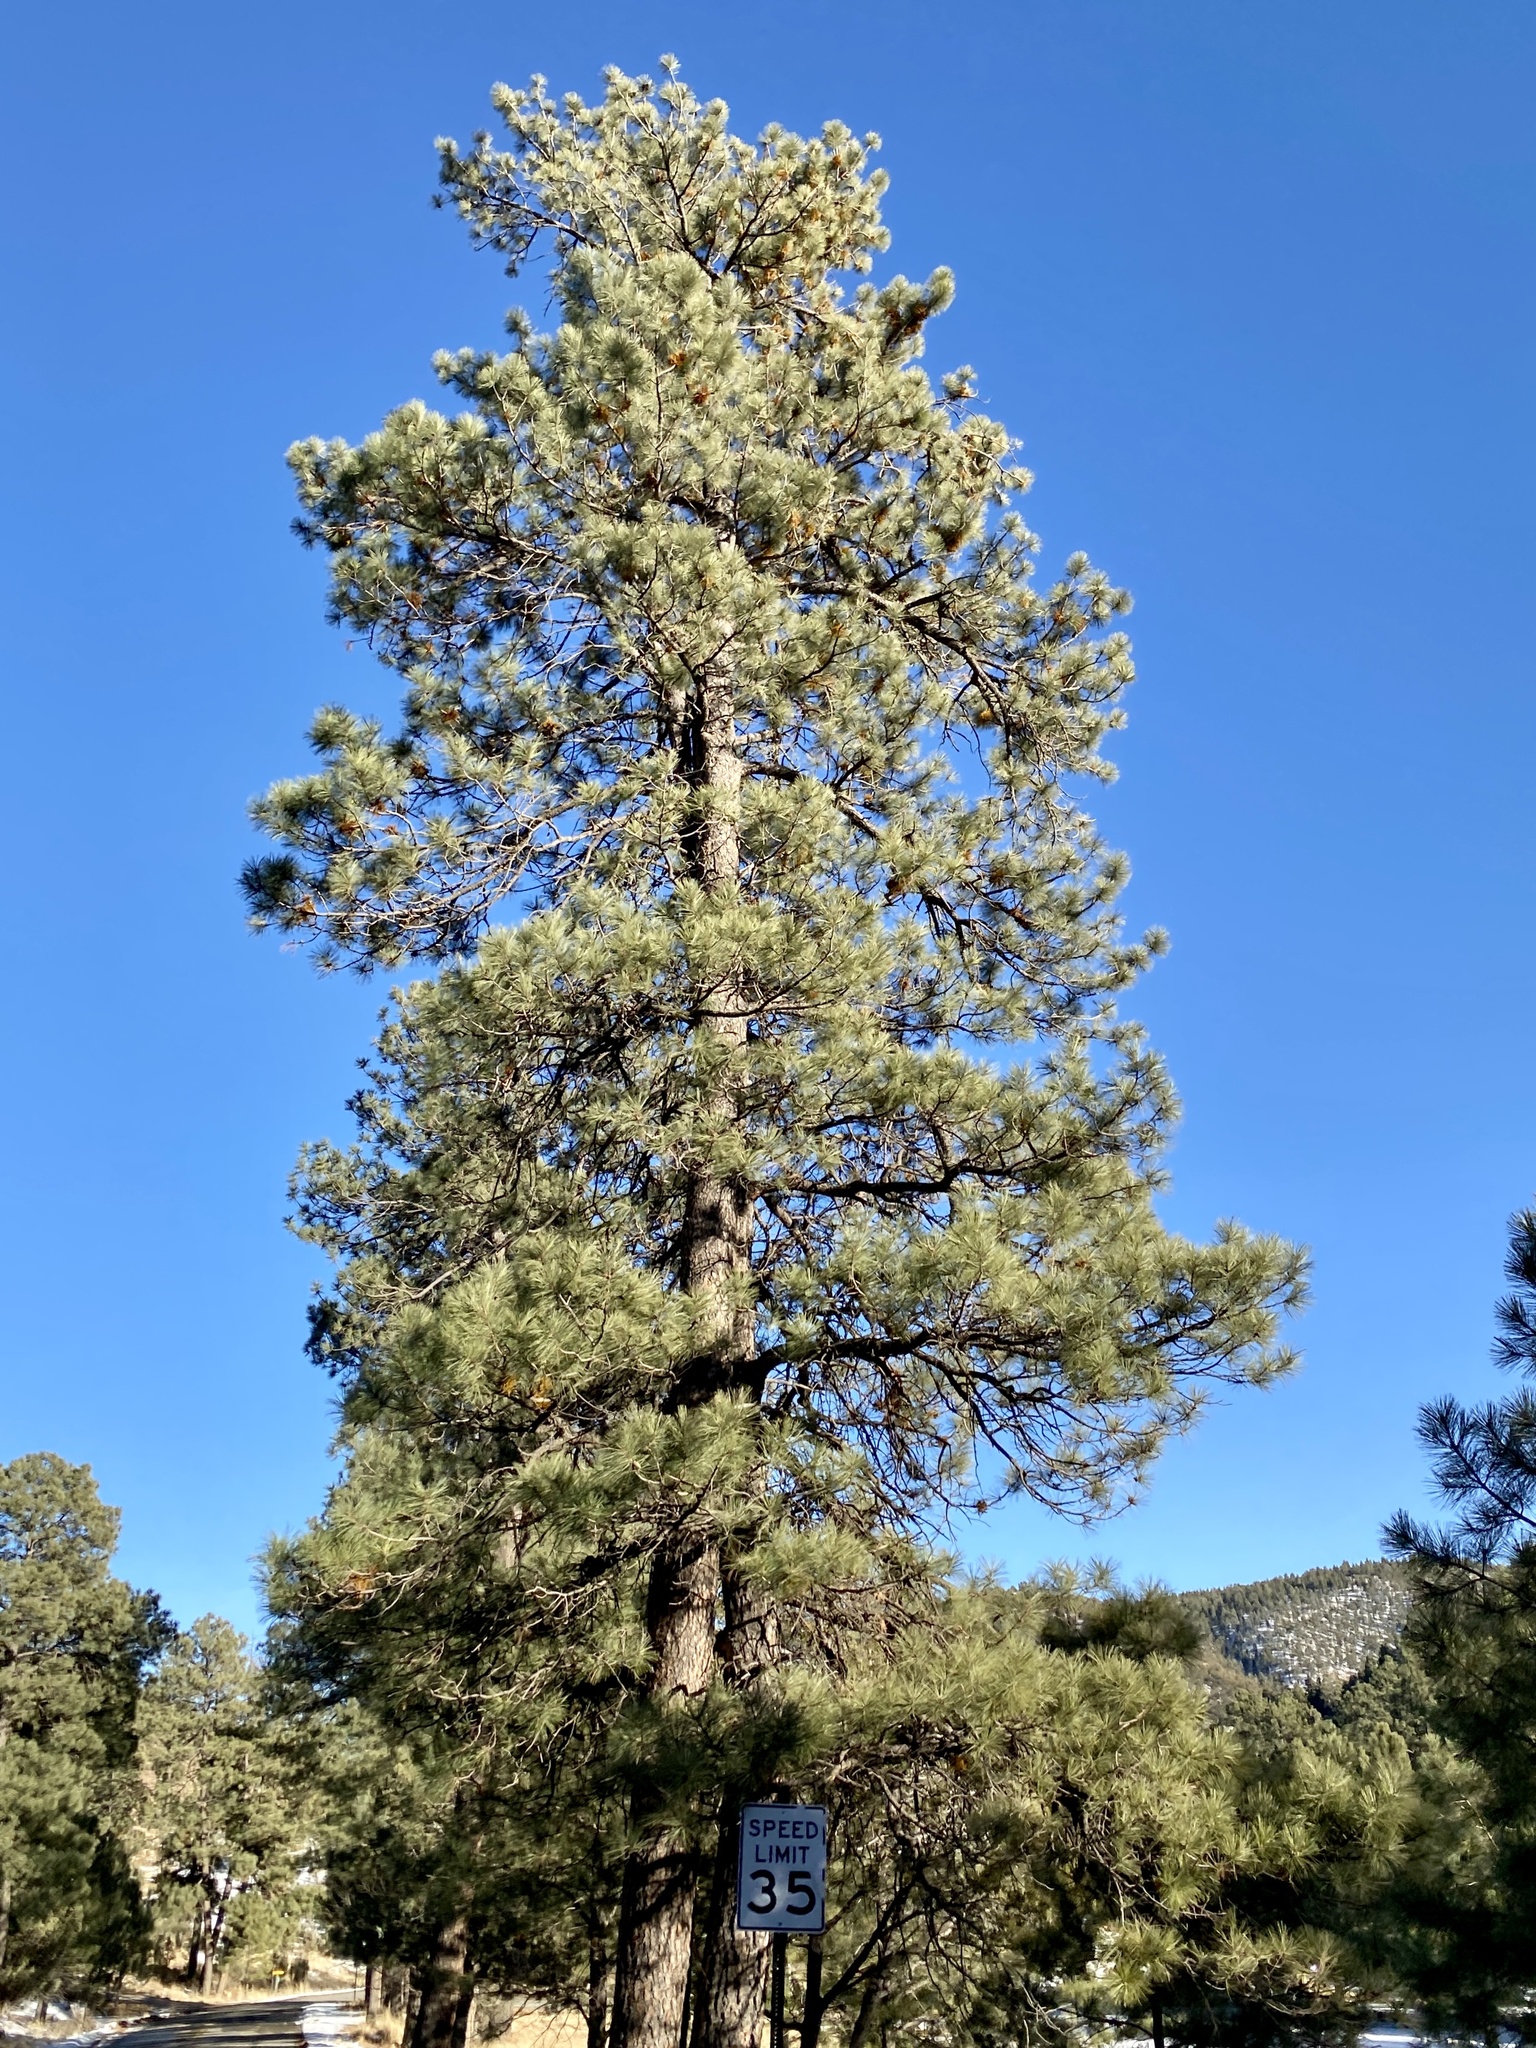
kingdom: Plantae
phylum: Tracheophyta
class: Pinopsida
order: Pinales
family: Pinaceae
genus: Pinus
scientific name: Pinus ponderosa
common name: Western yellow-pine
